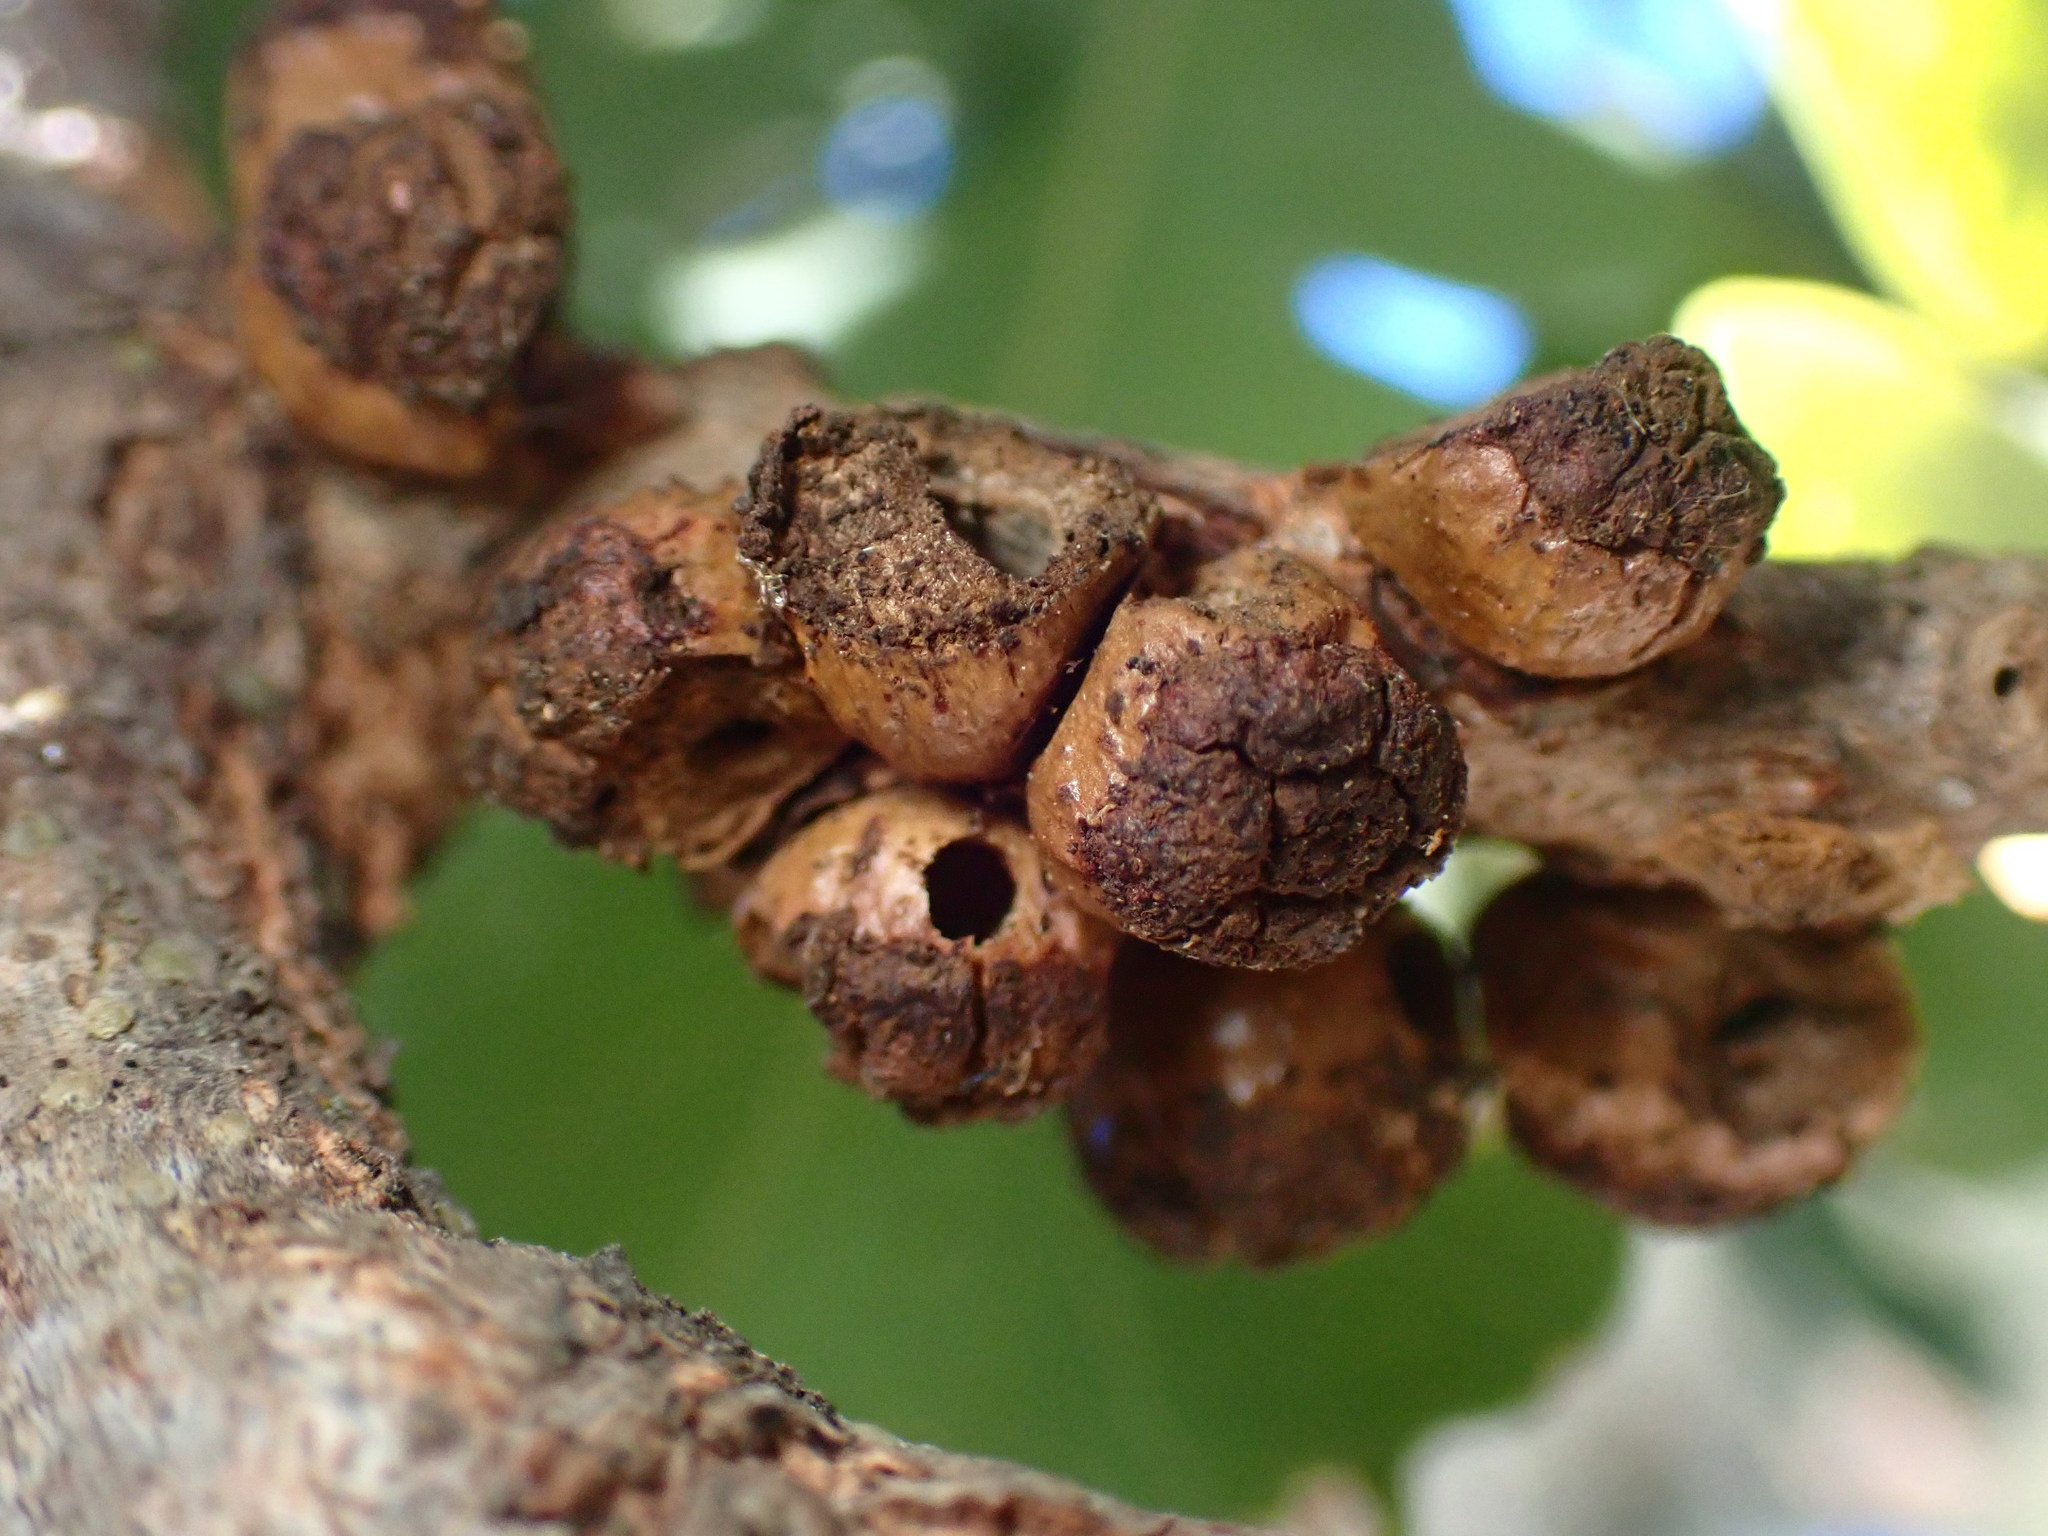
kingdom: Animalia
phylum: Arthropoda
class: Insecta
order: Hymenoptera
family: Cynipidae
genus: Disholcaspis
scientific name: Disholcaspis
